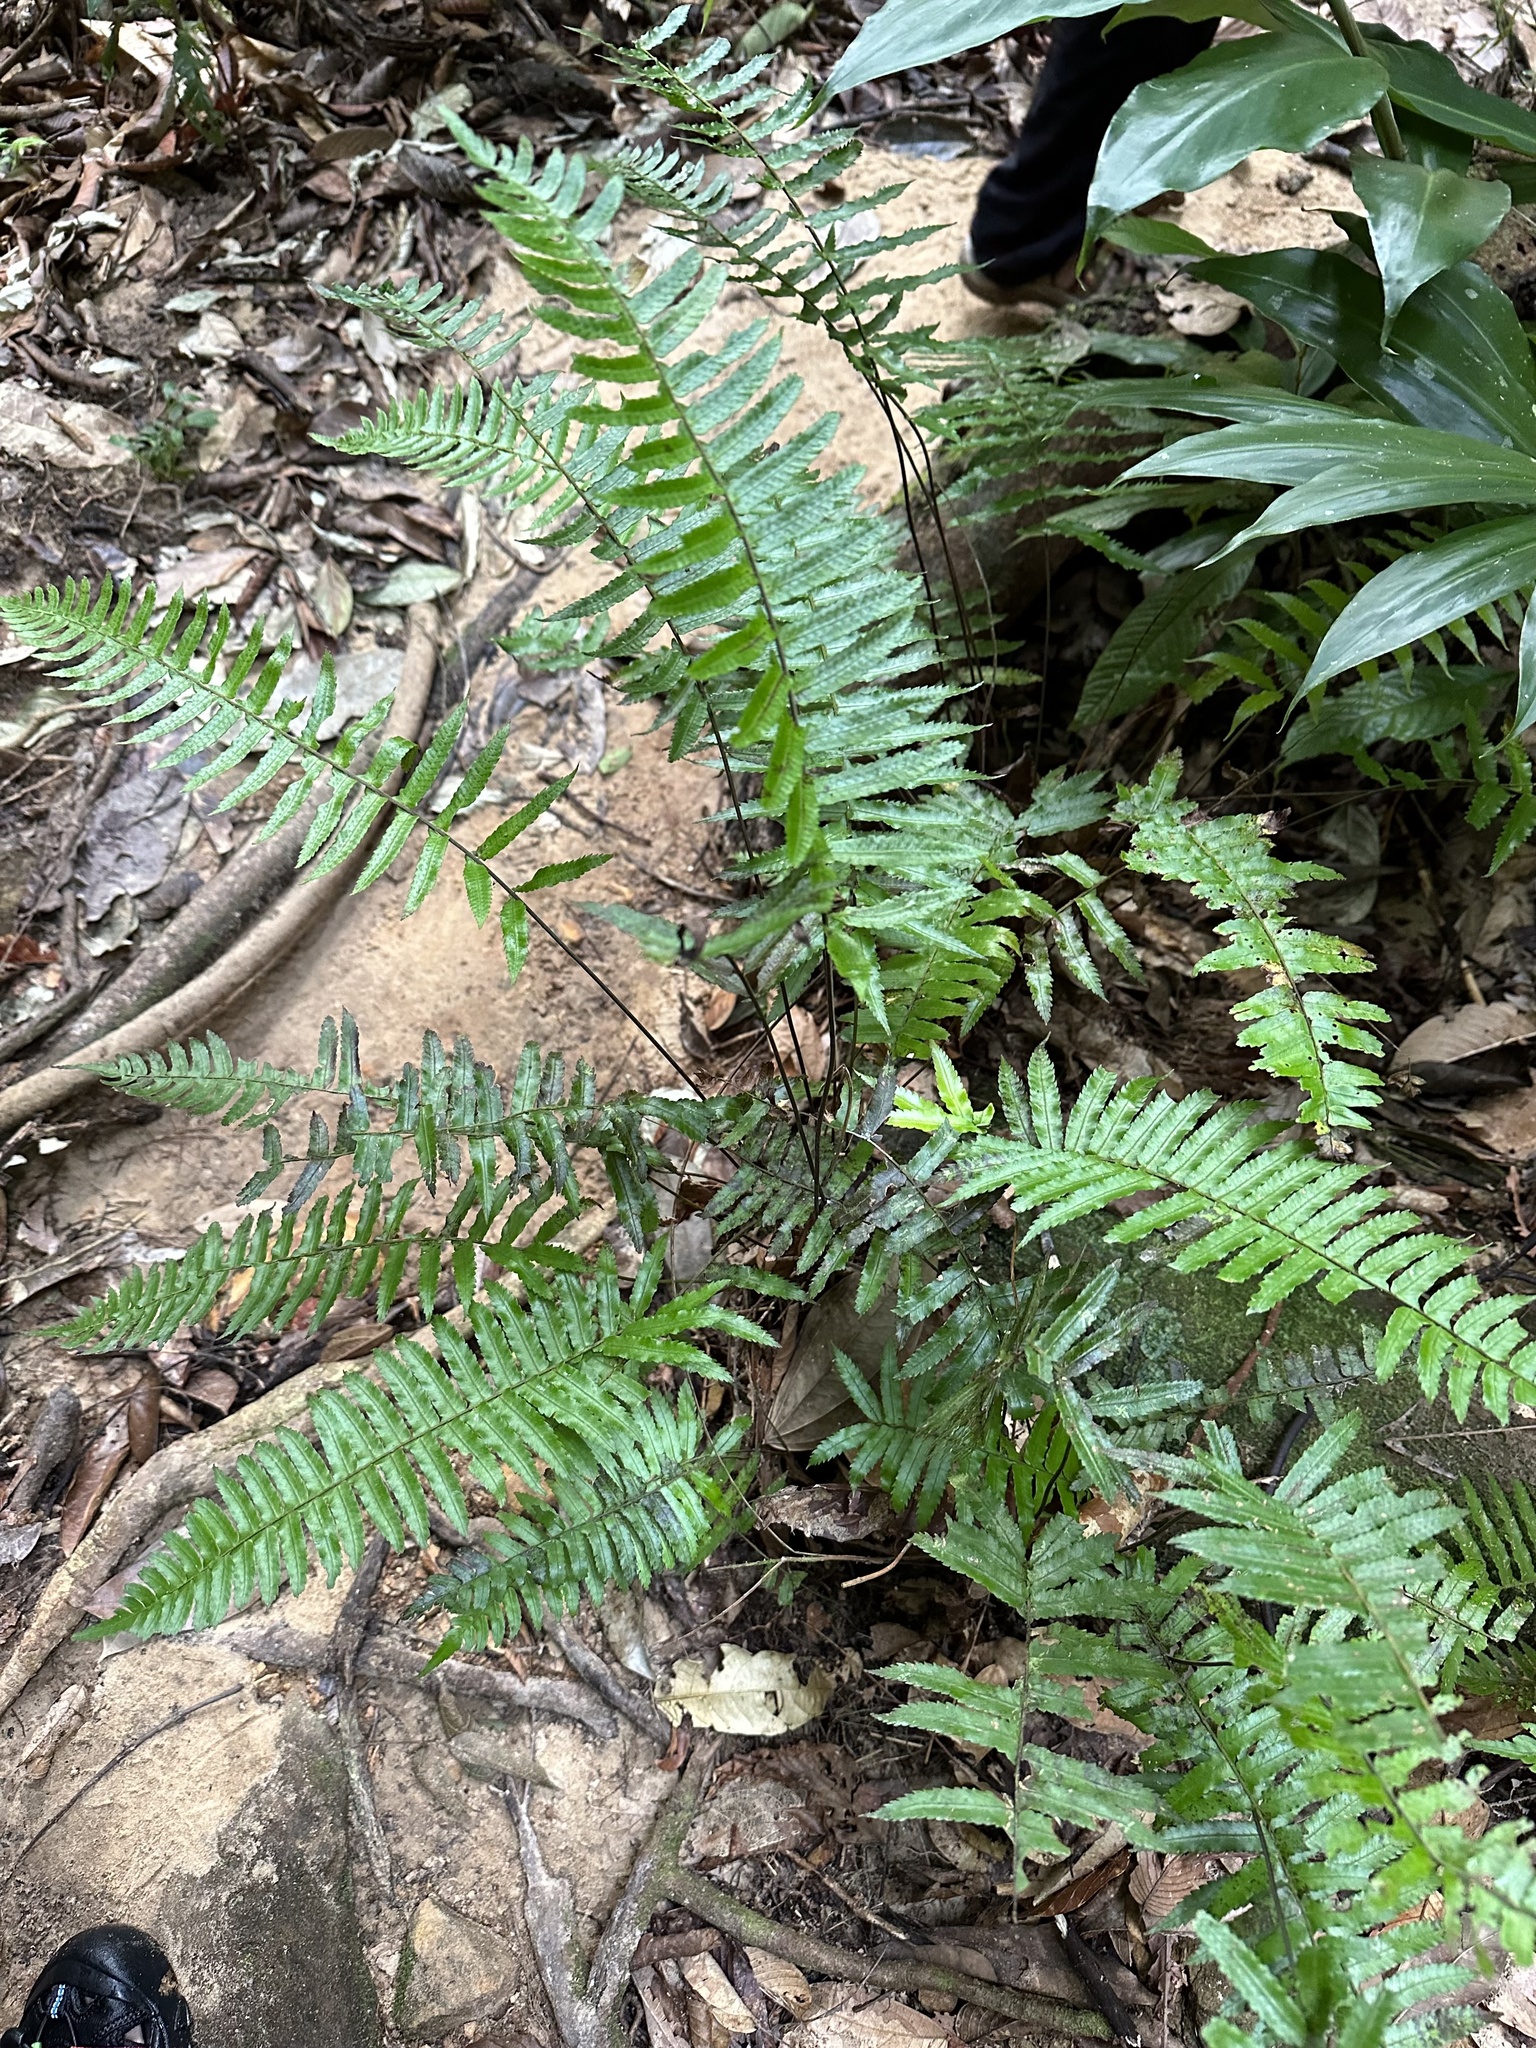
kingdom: Plantae
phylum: Tracheophyta
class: Polypodiopsida
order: Polypodiales
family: Thelypteridaceae
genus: Pronephrium
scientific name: Pronephrium hewittii
